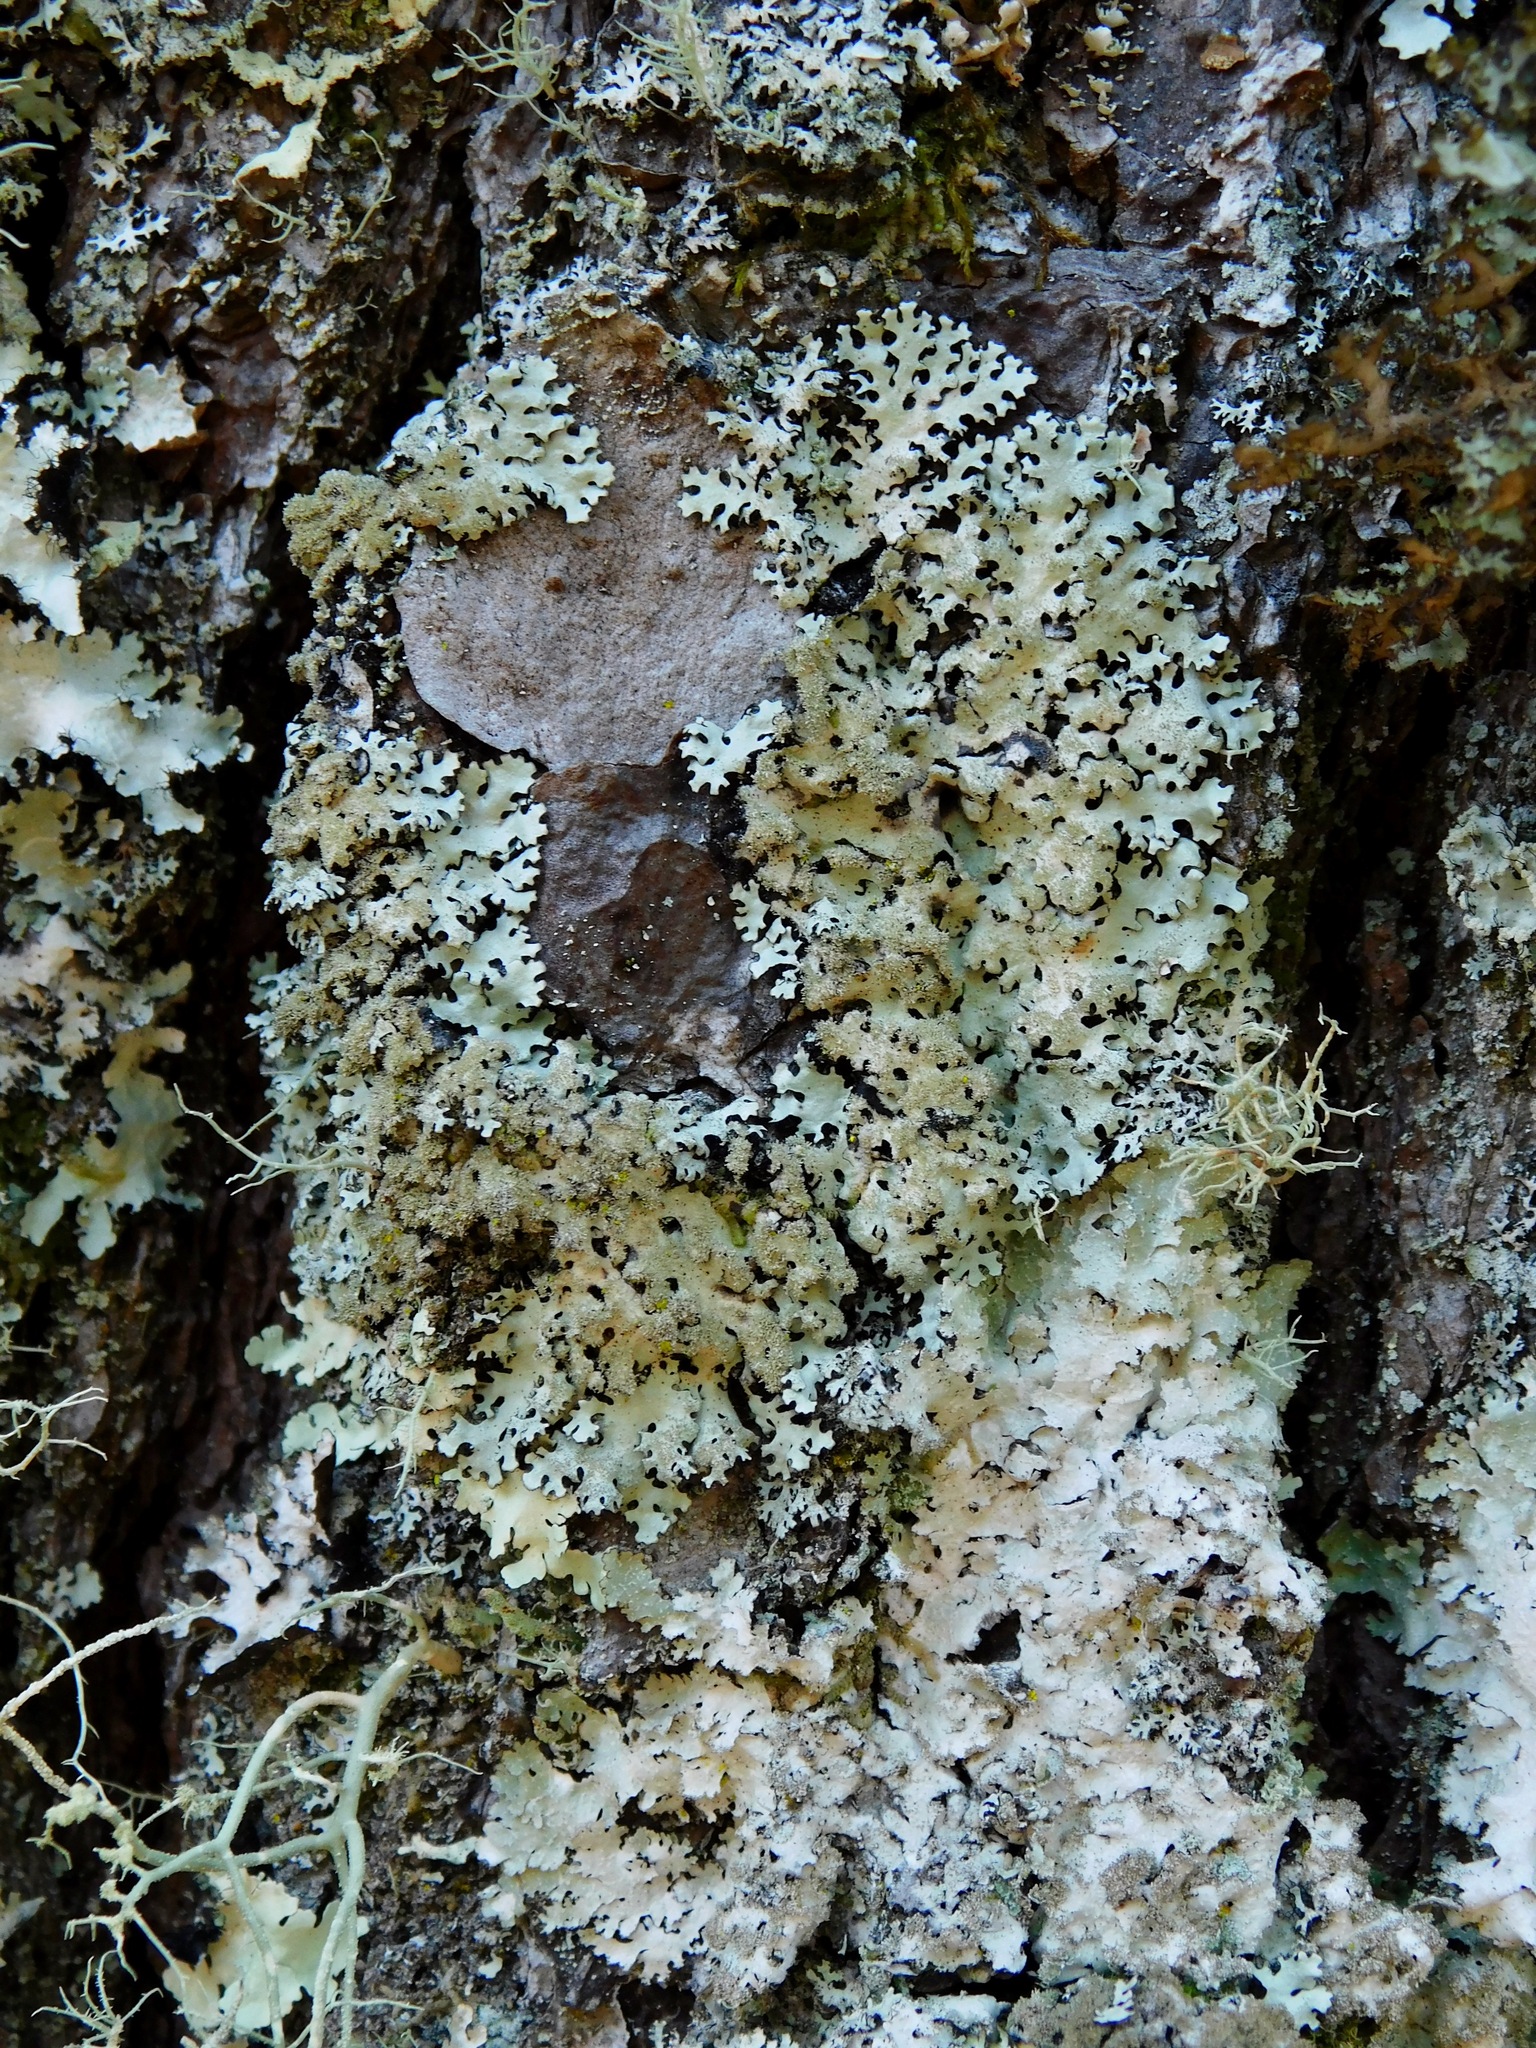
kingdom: Fungi
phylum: Ascomycota
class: Lecanoromycetes
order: Lecanorales
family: Parmeliaceae
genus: Hypotrachyna
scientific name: Hypotrachyna horrescens
